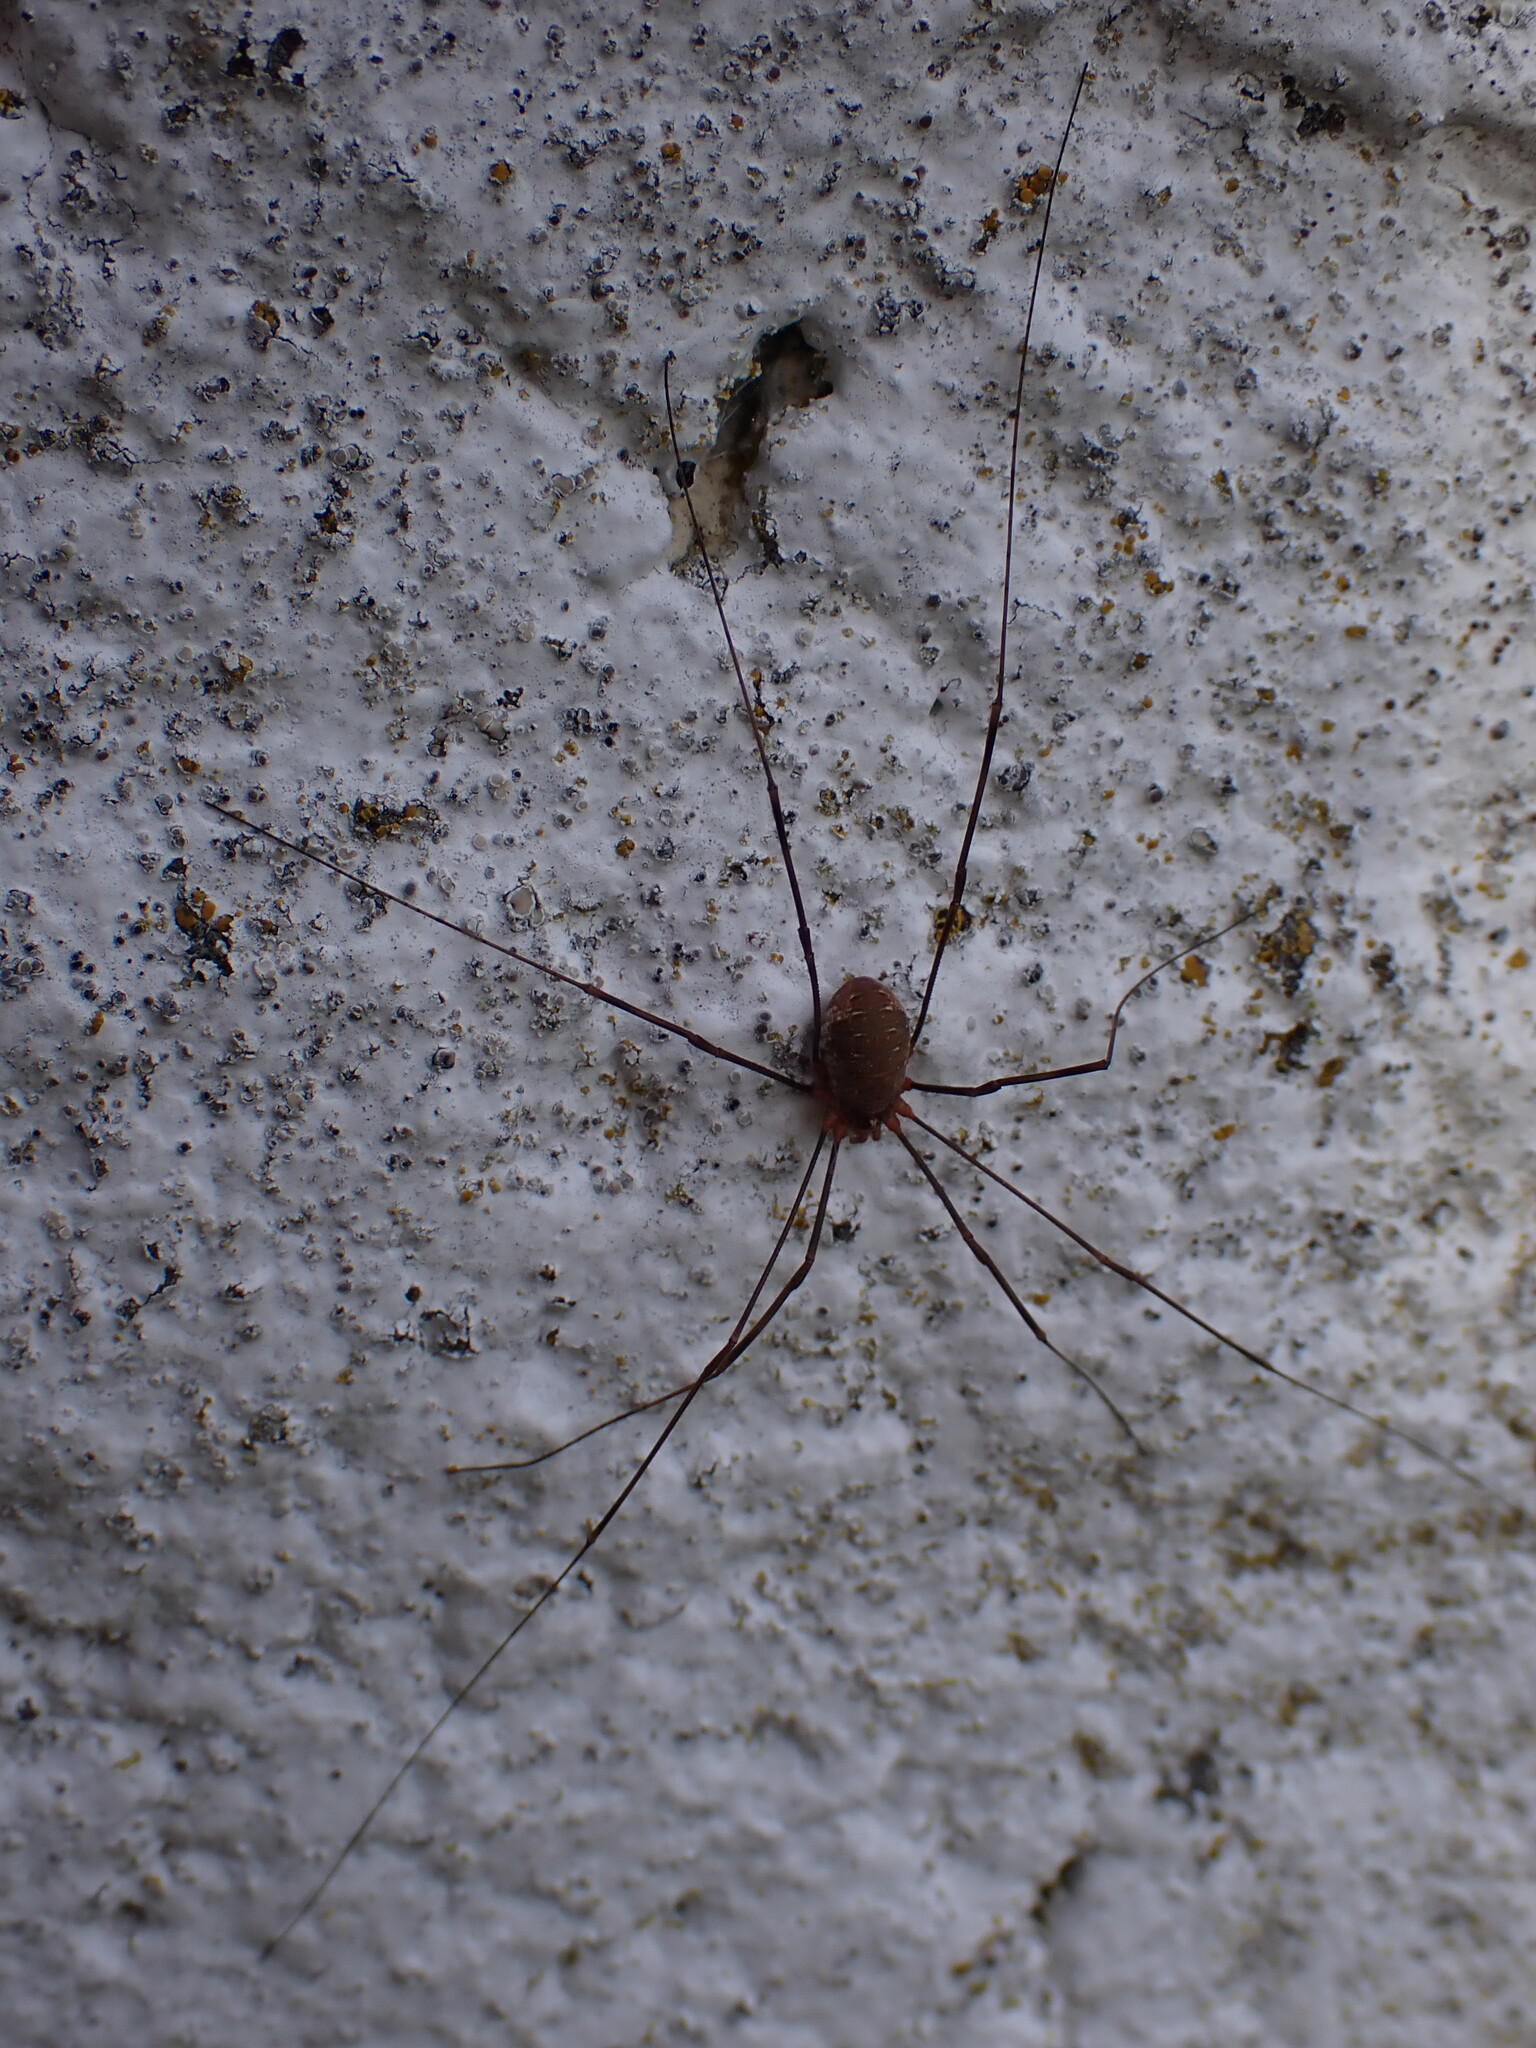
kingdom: Animalia
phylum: Arthropoda
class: Arachnida
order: Opiliones
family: Phalangiidae
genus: Opilio
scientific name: Opilio canestrinii
